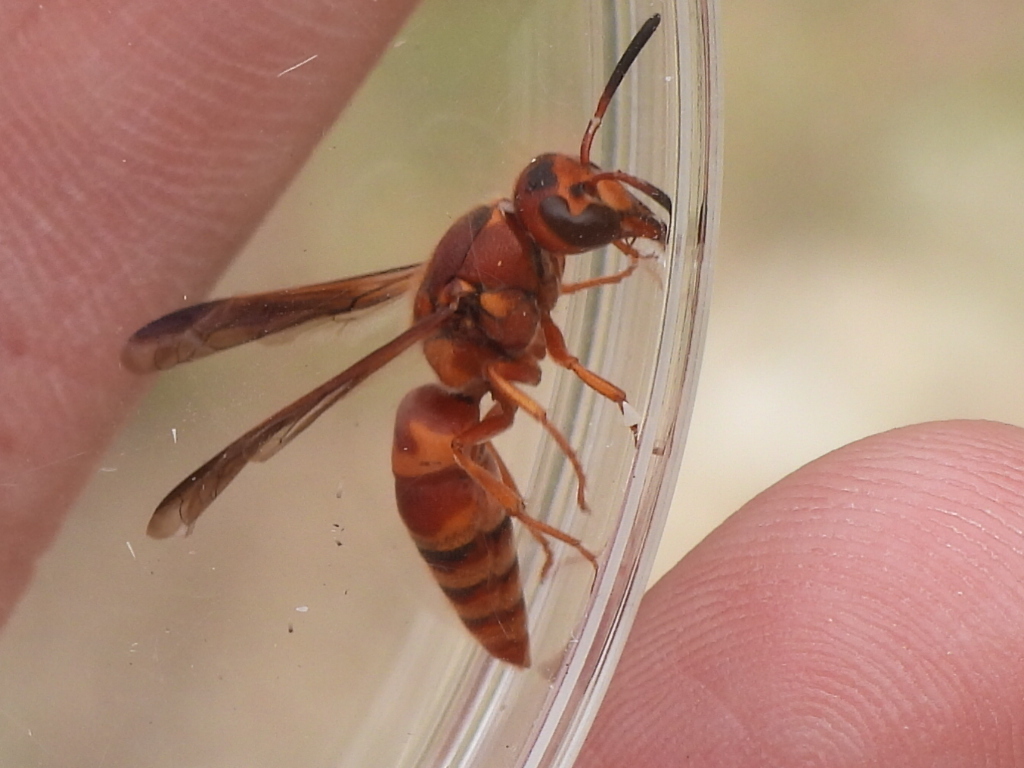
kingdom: Animalia
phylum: Arthropoda
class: Insecta
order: Hymenoptera
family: Eumenidae
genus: Euodynerus
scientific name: Euodynerus pratensis
